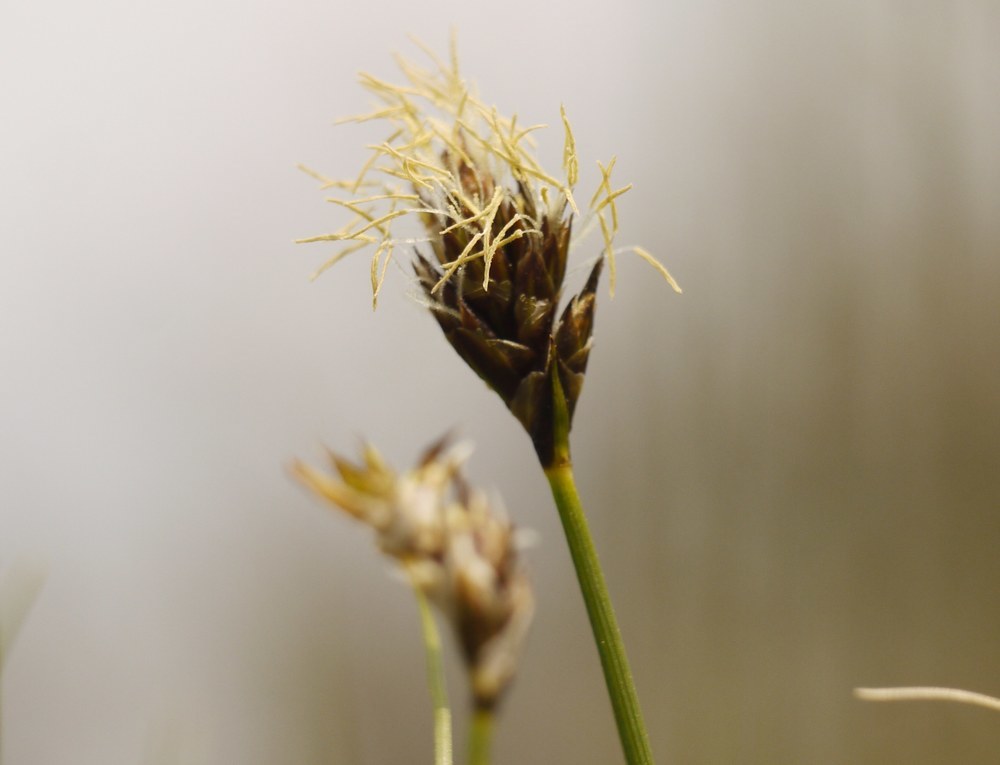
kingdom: Plantae
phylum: Tracheophyta
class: Liliopsida
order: Poales
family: Cyperaceae
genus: Carex
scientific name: Carex stenophylla
